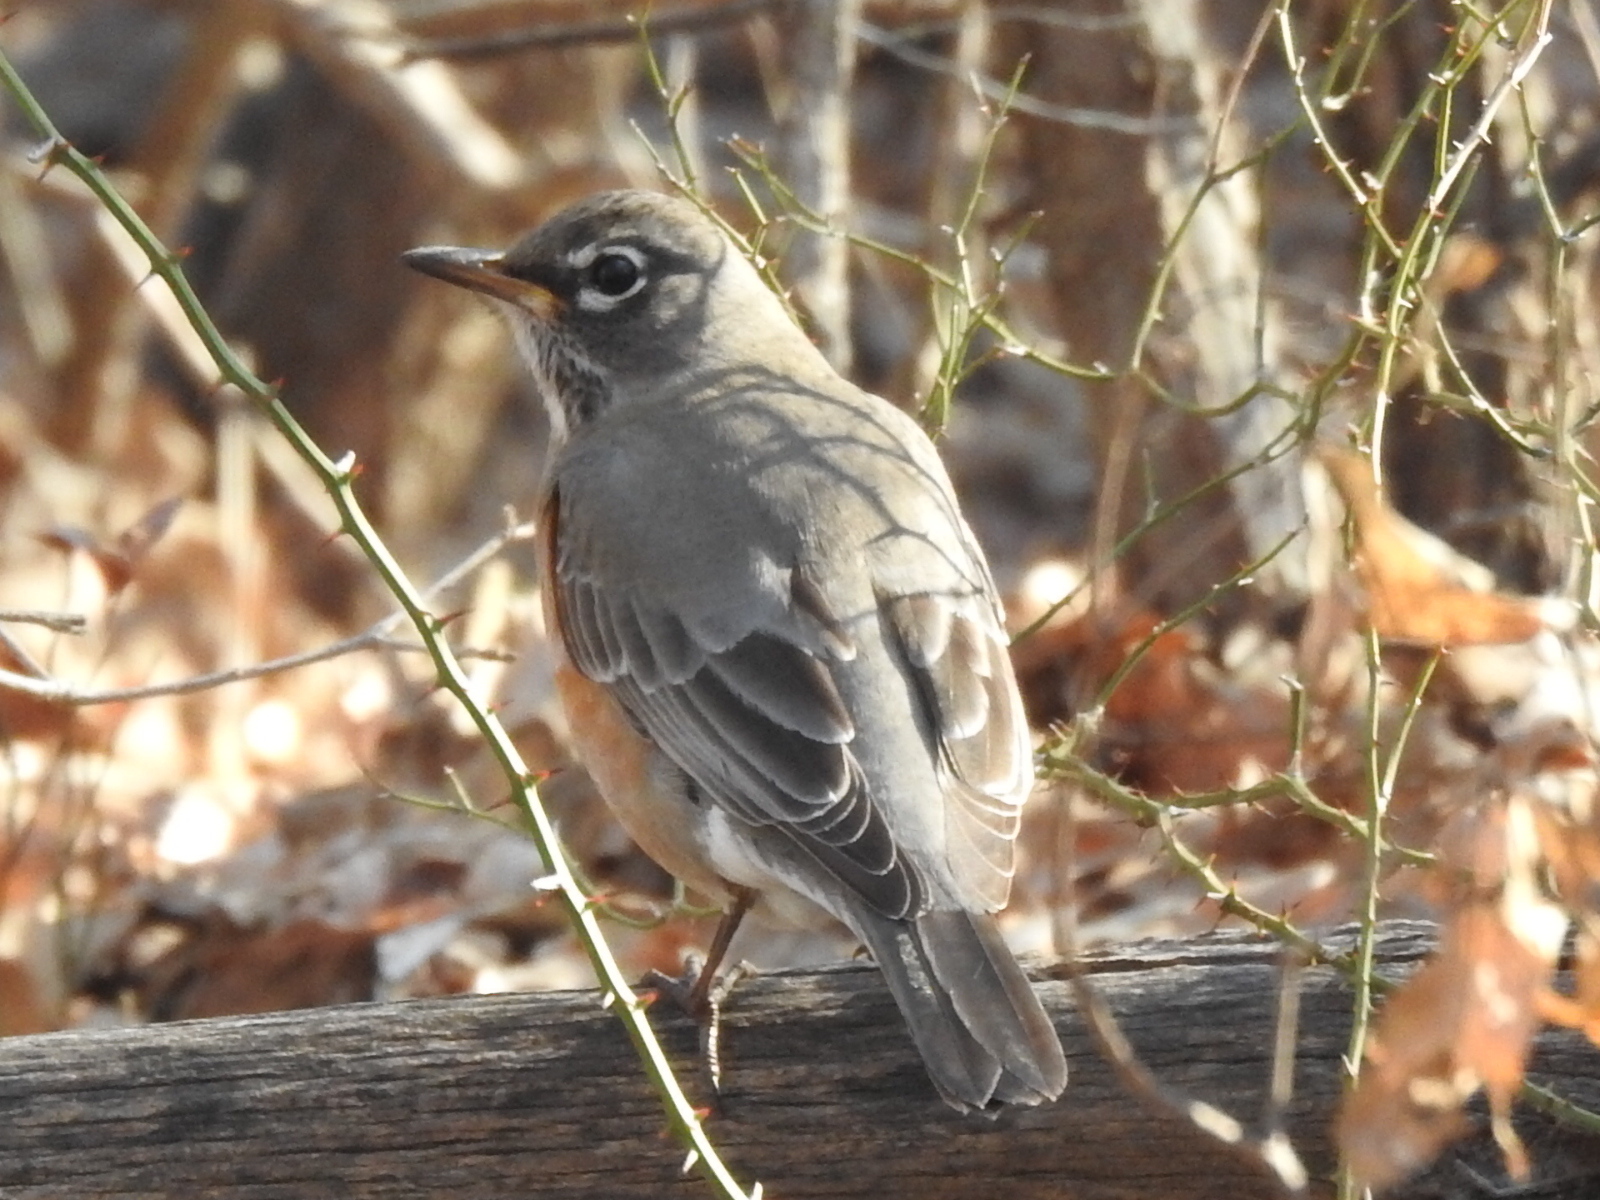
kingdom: Animalia
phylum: Chordata
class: Aves
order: Passeriformes
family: Turdidae
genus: Turdus
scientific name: Turdus migratorius
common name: American robin
